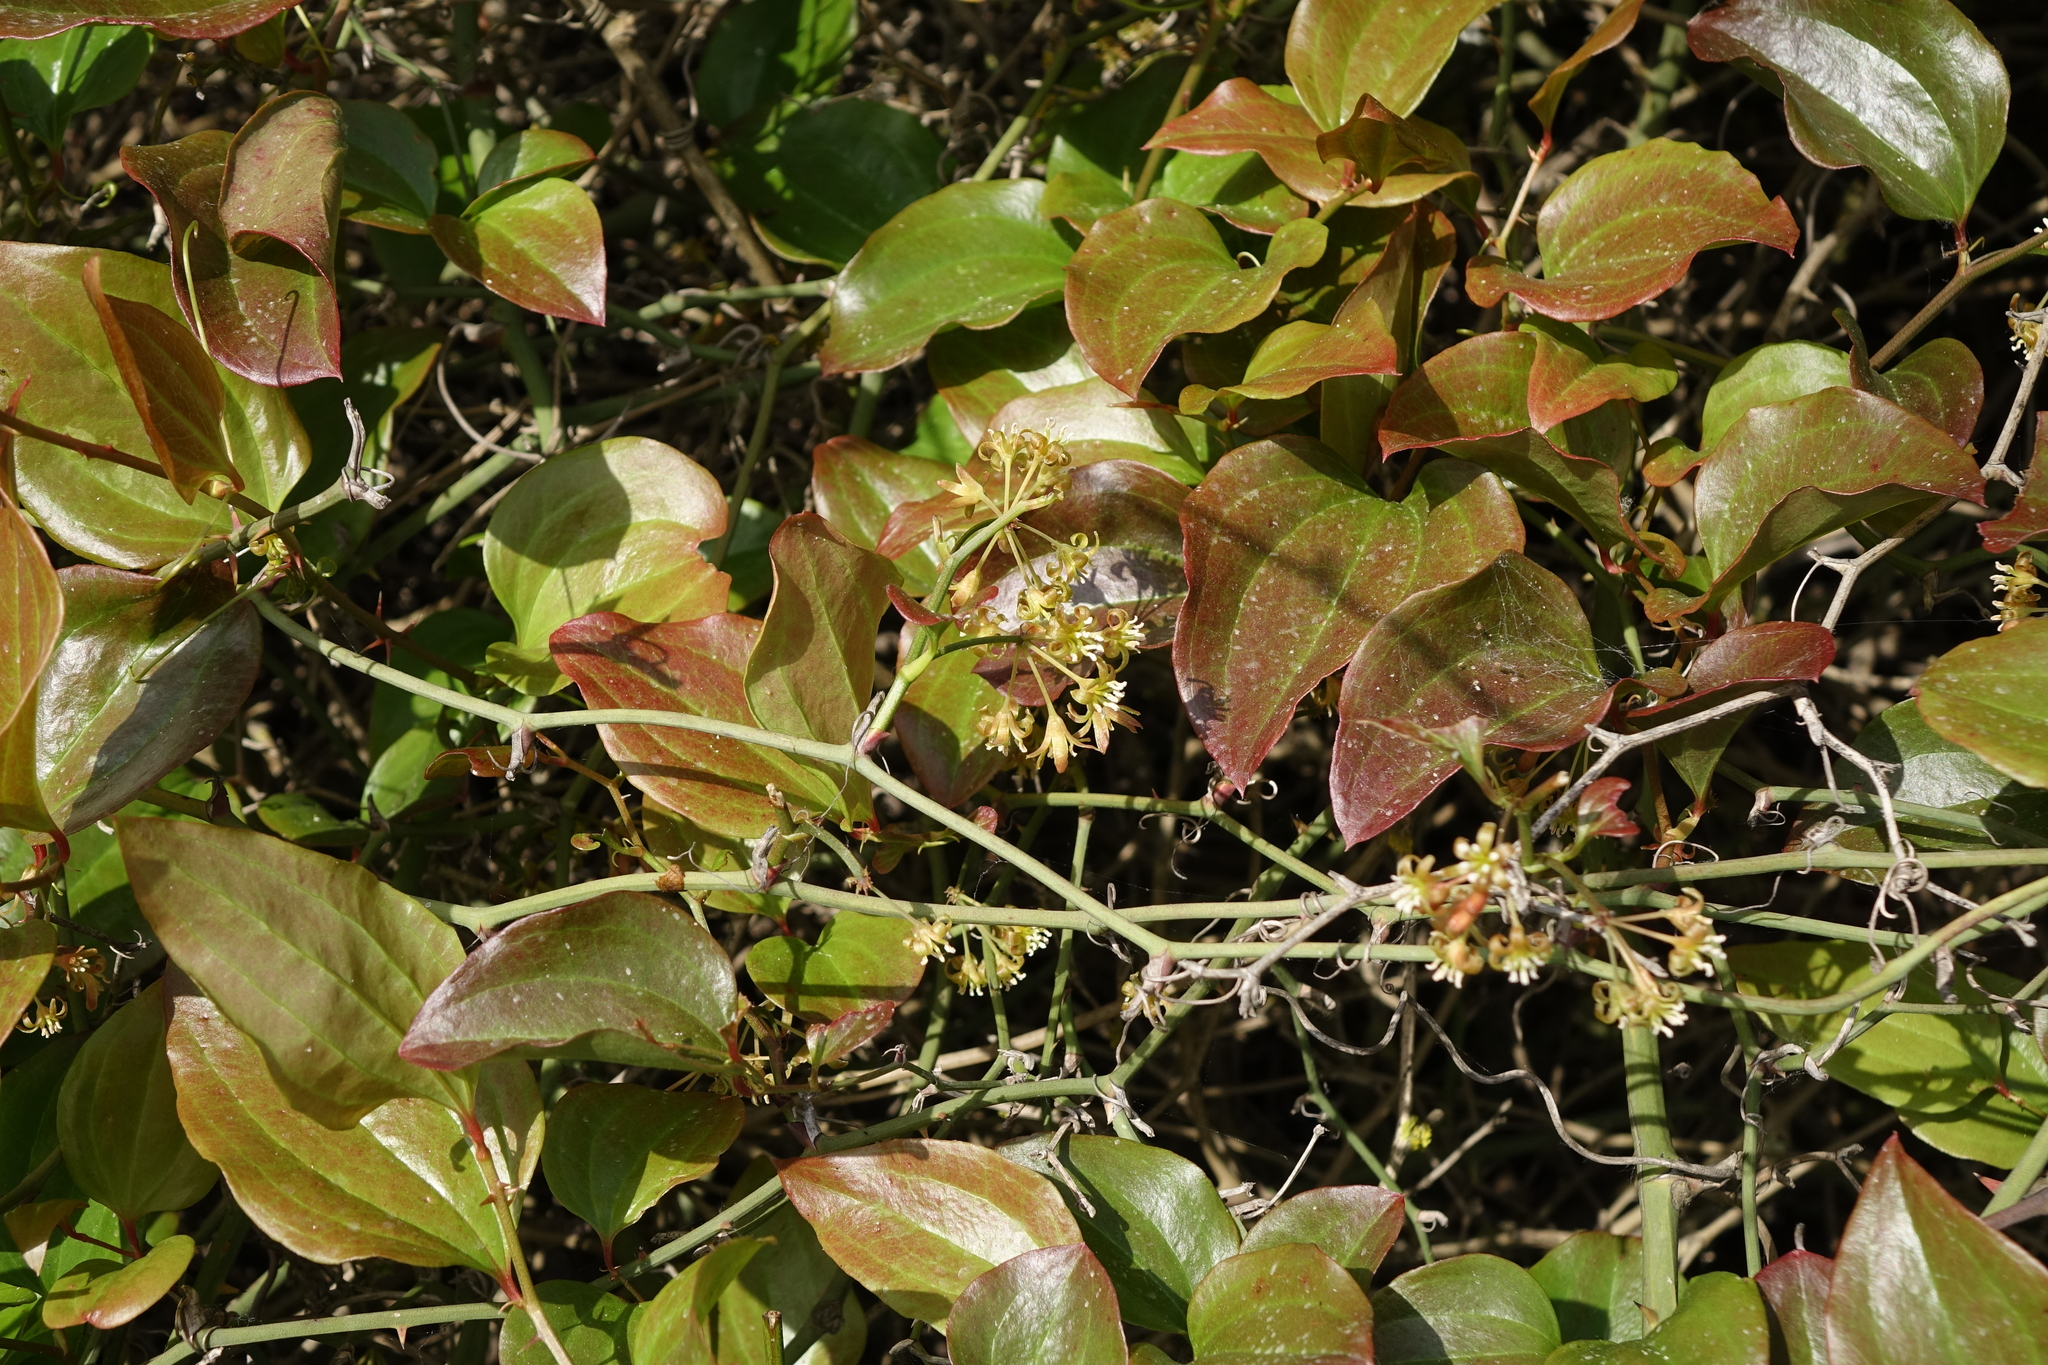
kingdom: Plantae
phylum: Tracheophyta
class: Liliopsida
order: Liliales
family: Smilacaceae
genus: Smilax
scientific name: Smilax excelsa
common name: Larger smilax
